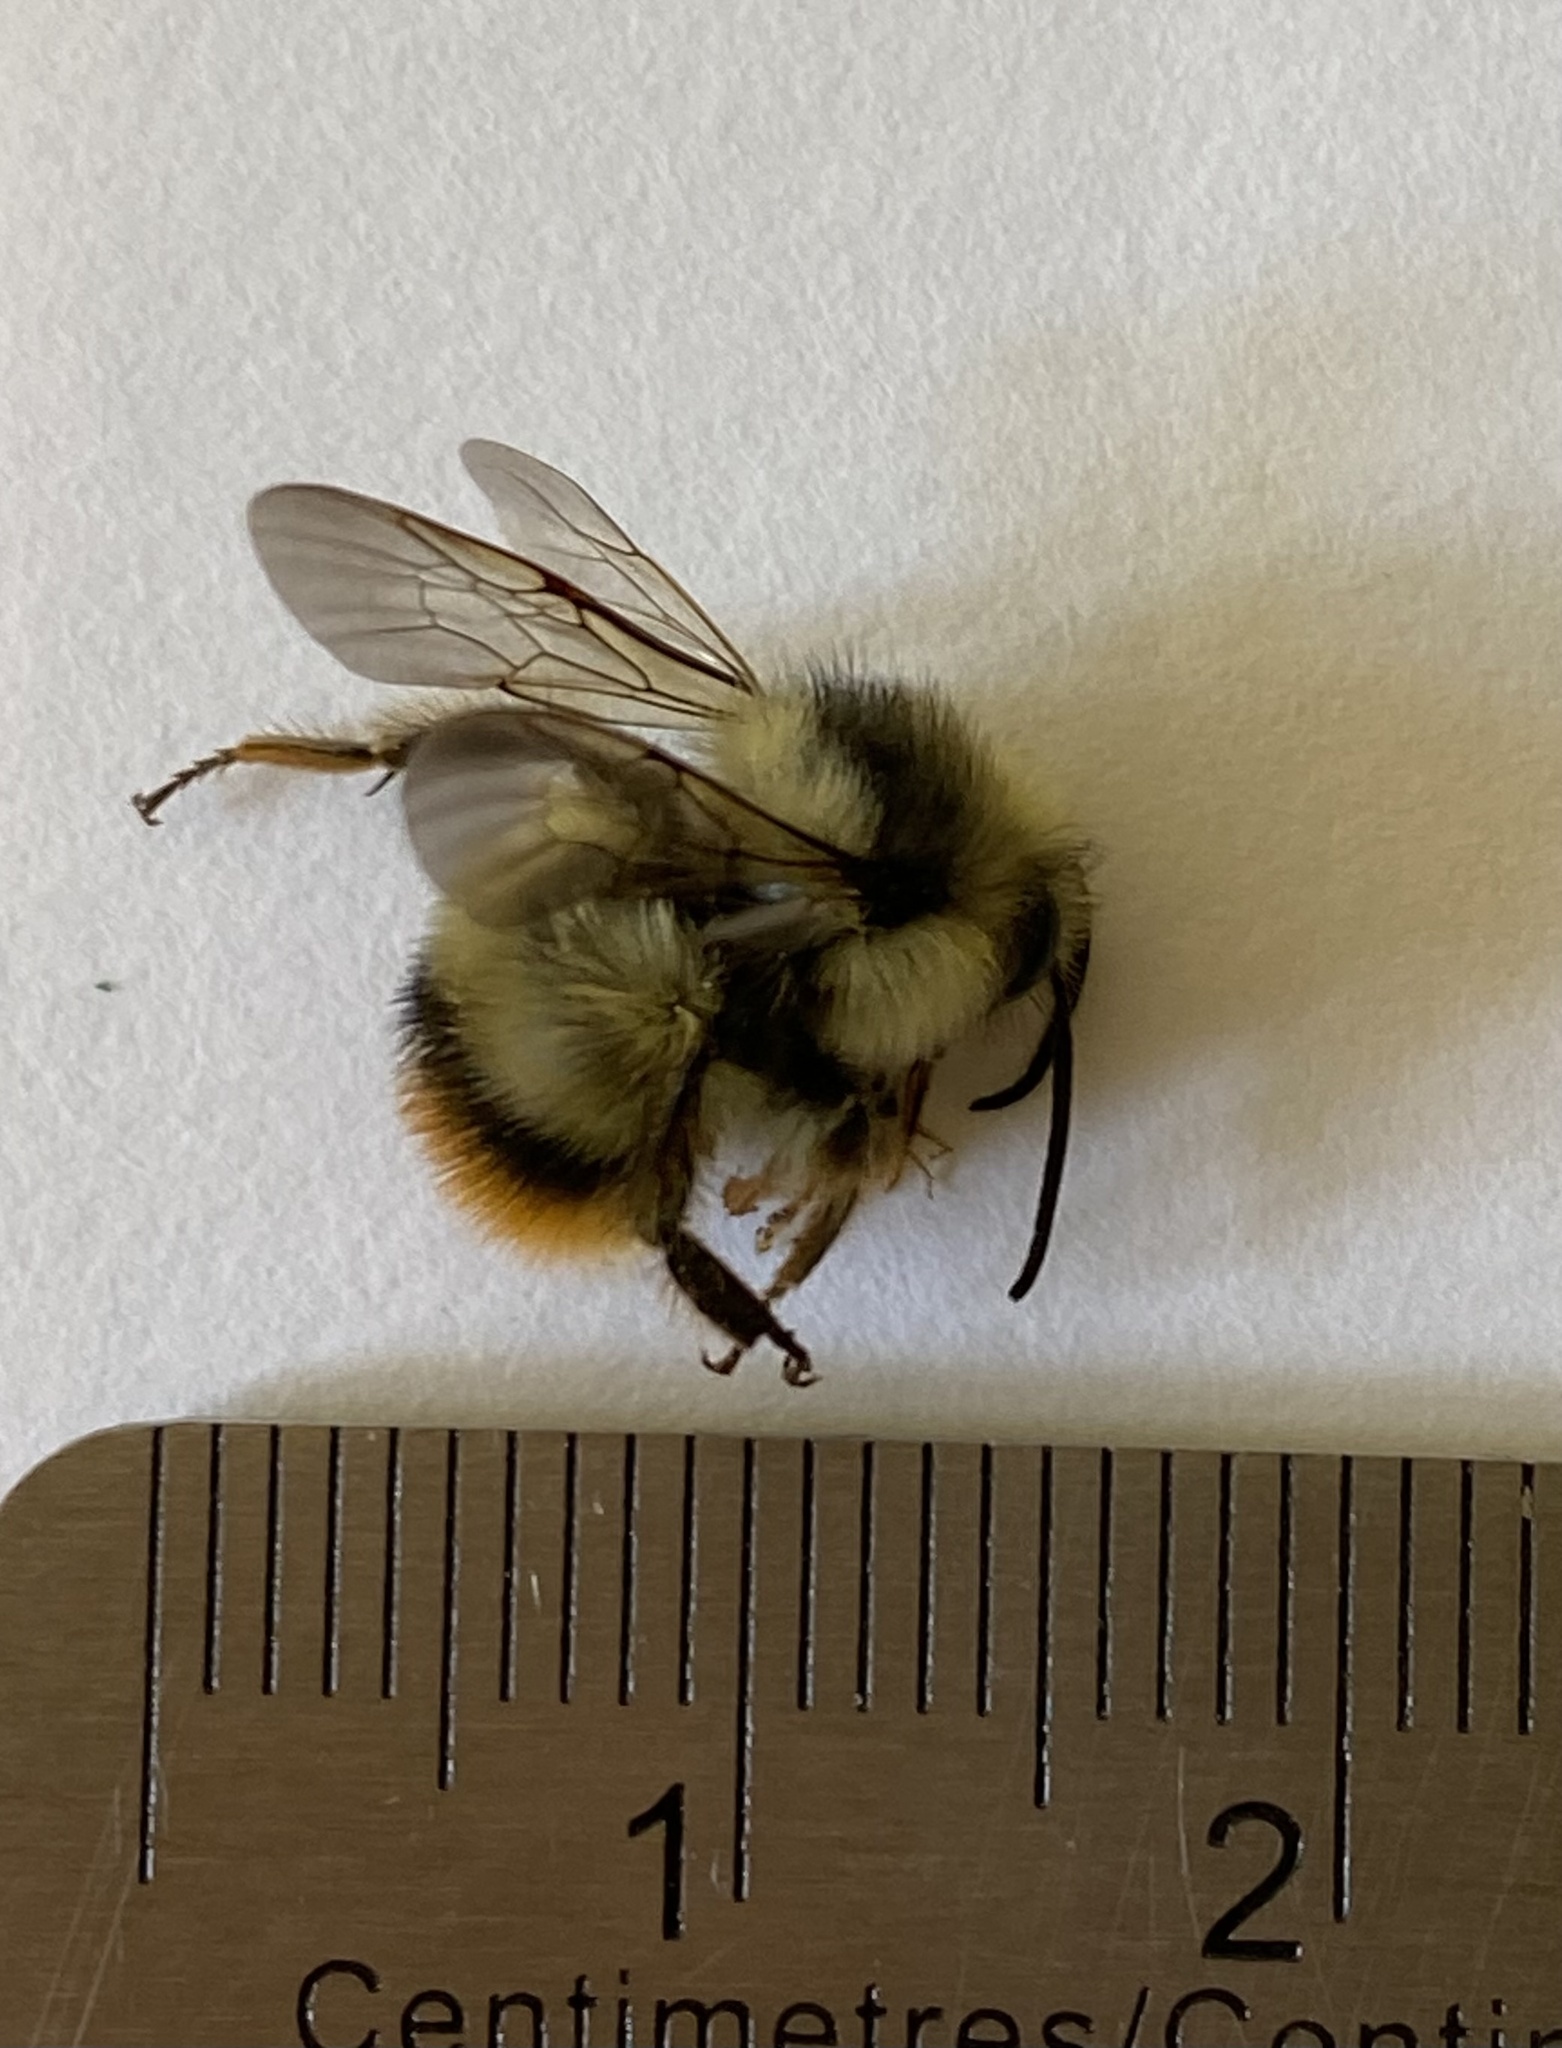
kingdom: Animalia
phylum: Arthropoda
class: Insecta
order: Hymenoptera
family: Apidae
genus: Bombus
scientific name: Bombus mixtus
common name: Fuzzy-horned bumble bee
